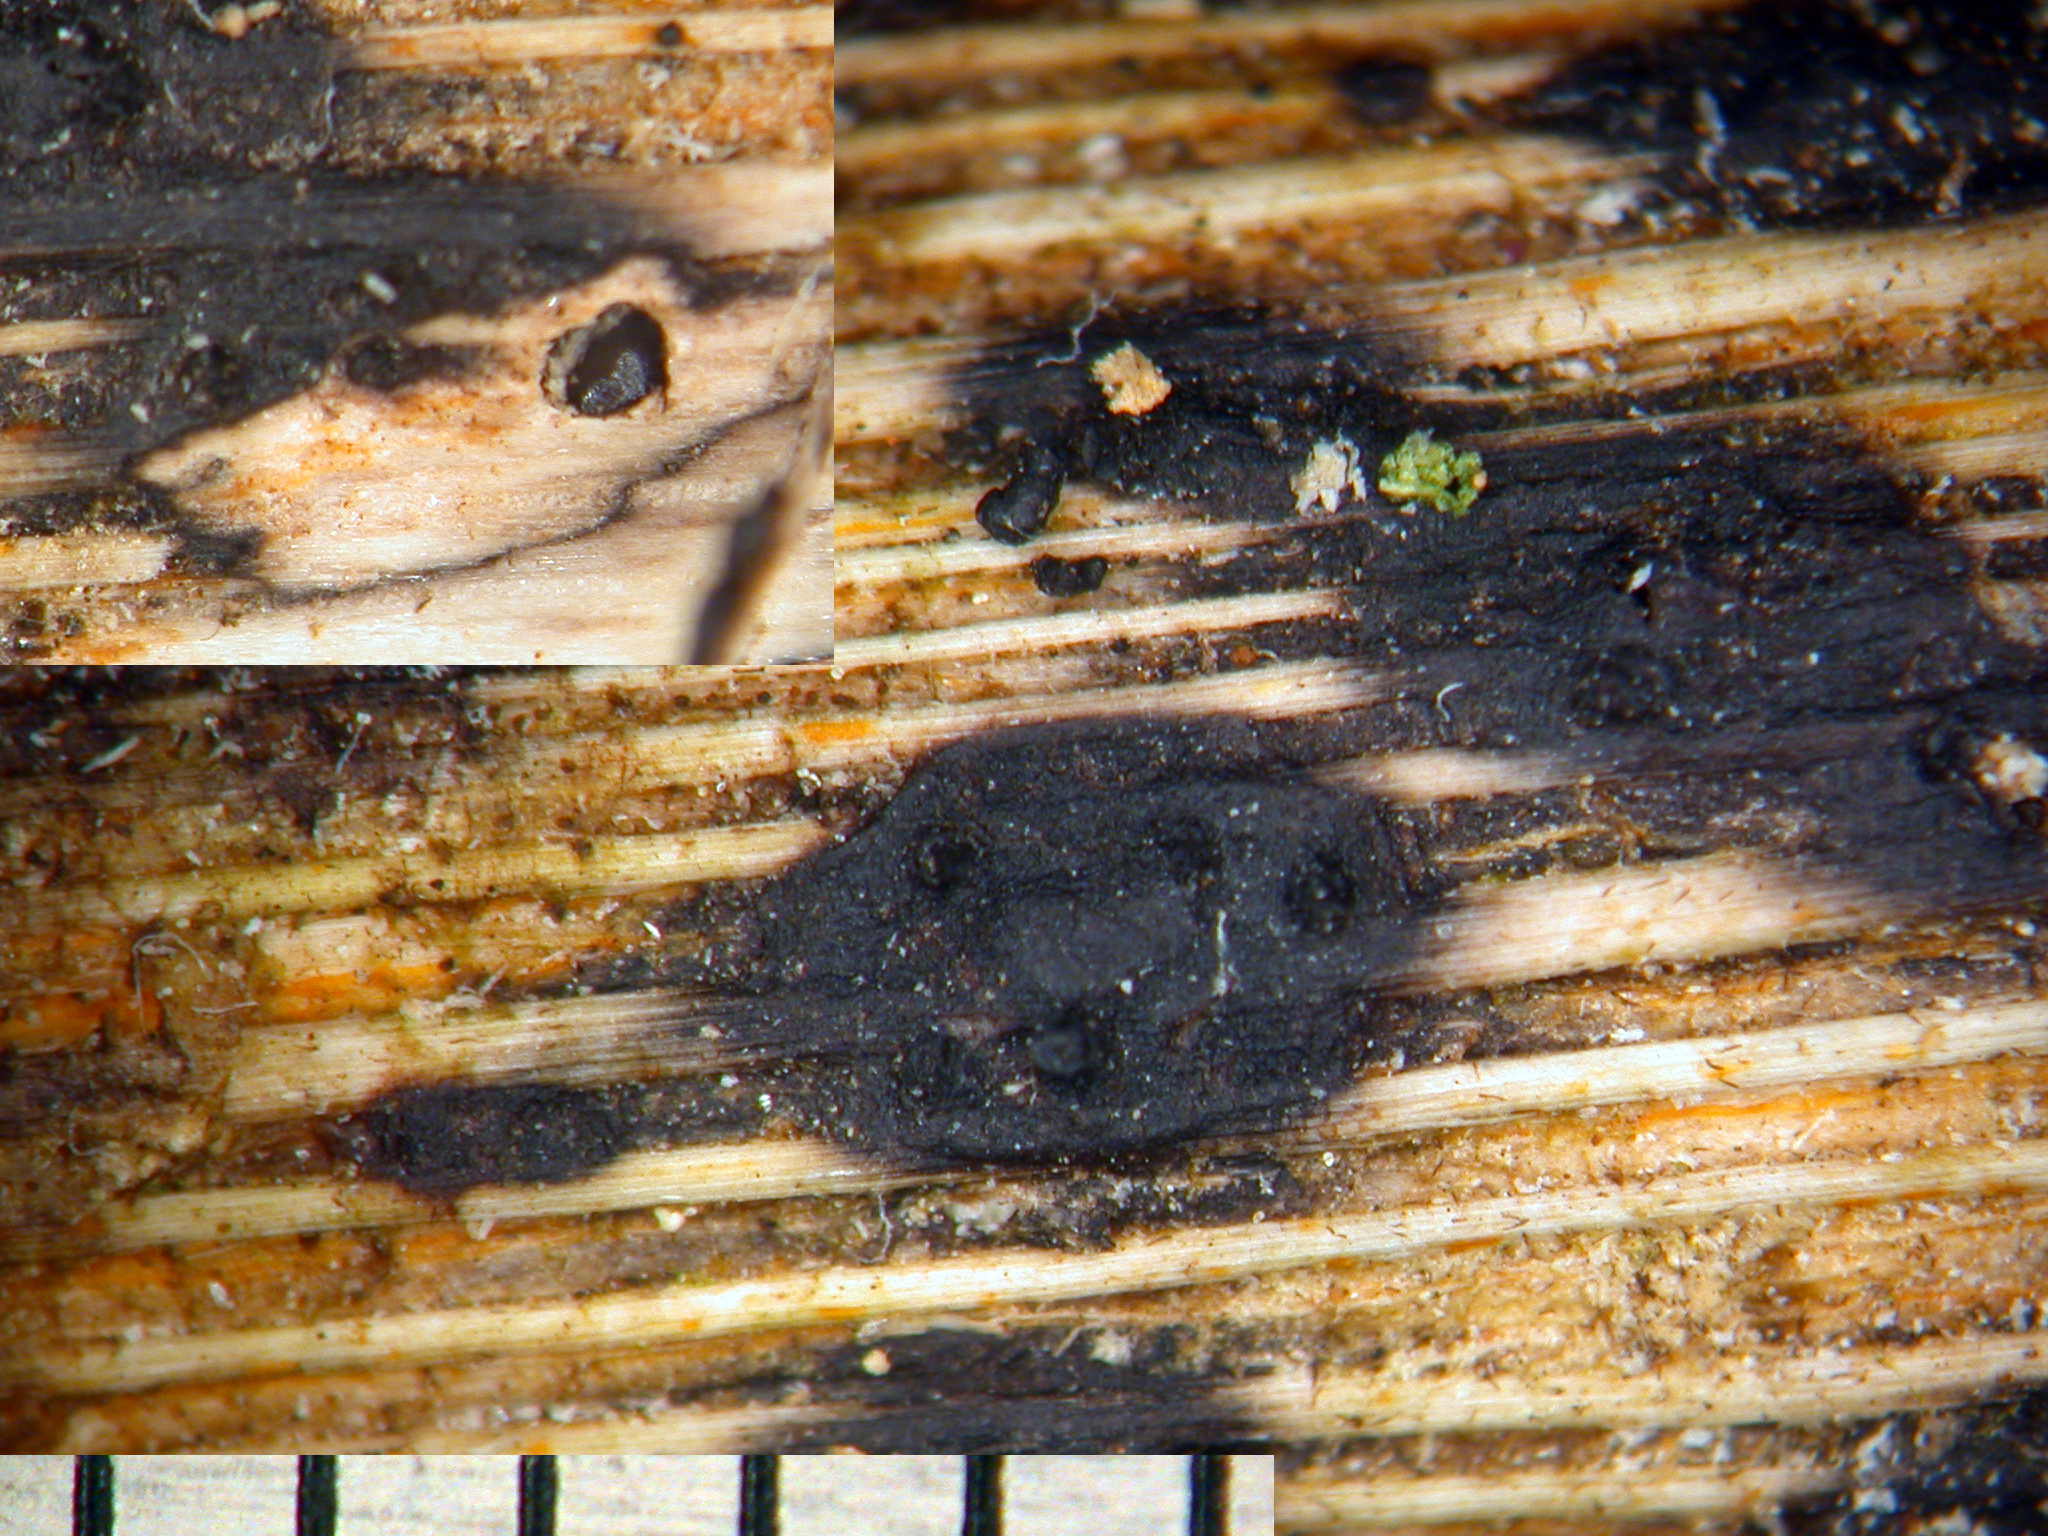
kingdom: Fungi
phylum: Ascomycota
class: Sordariomycetes
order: Diaporthales
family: Diaporthaceae
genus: Diaporthe
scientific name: Diaporthe eres
